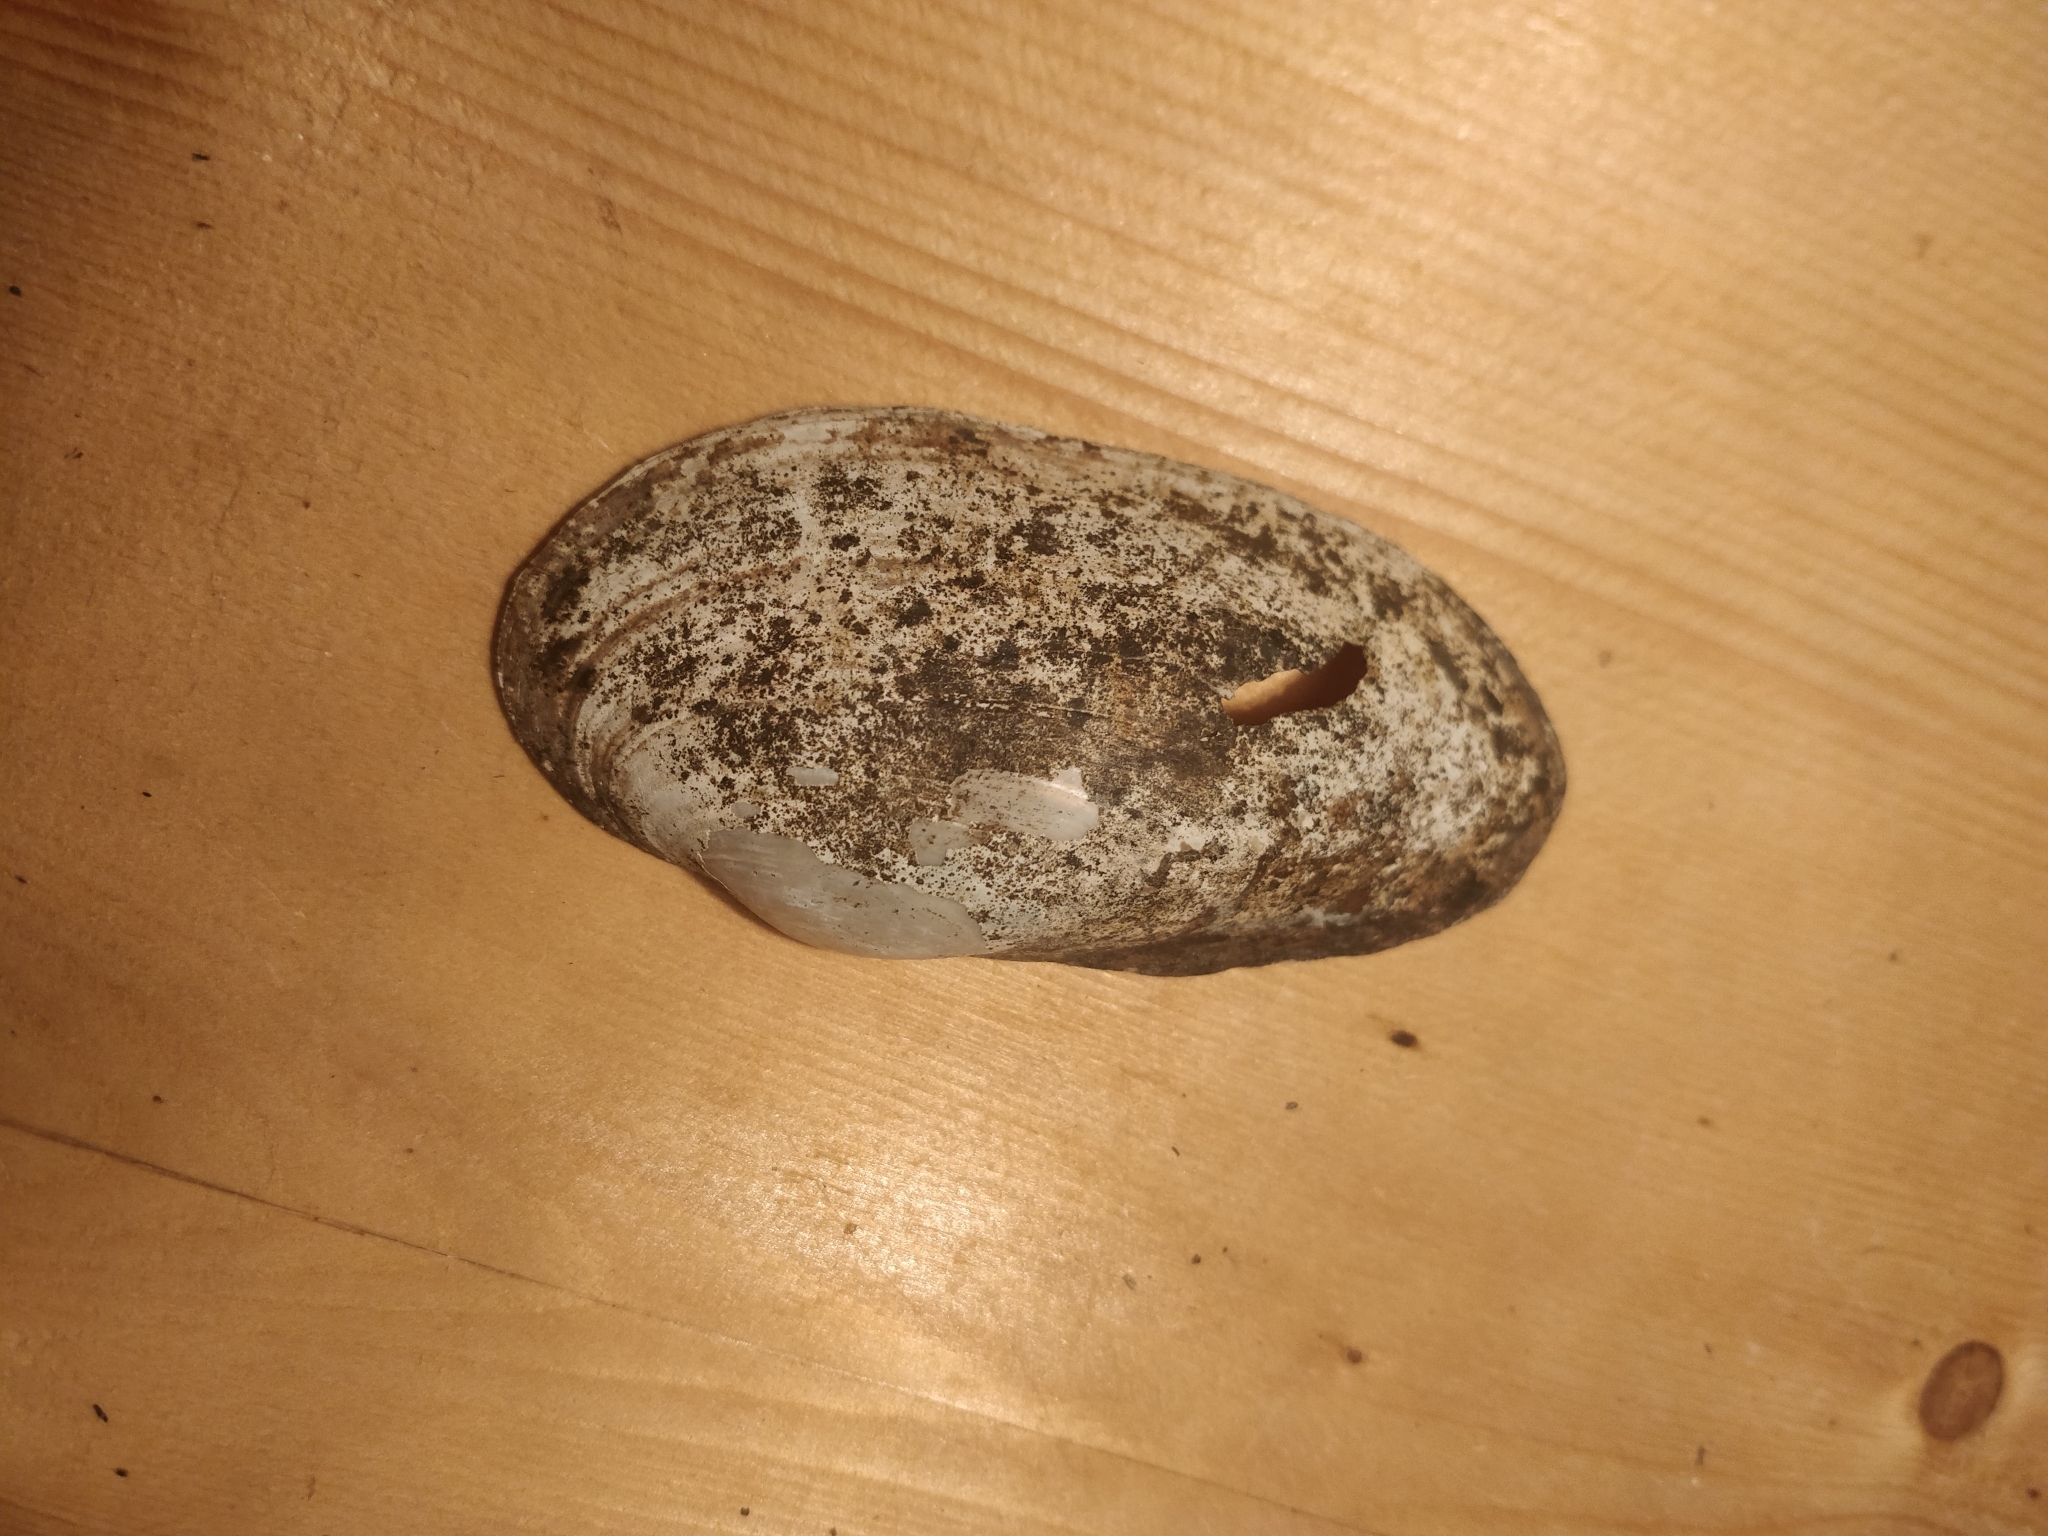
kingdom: Animalia
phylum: Mollusca
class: Bivalvia
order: Unionida
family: Unionidae
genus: Anodontoides
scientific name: Anodontoides ferussacianus
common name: Cylindrical papershell
